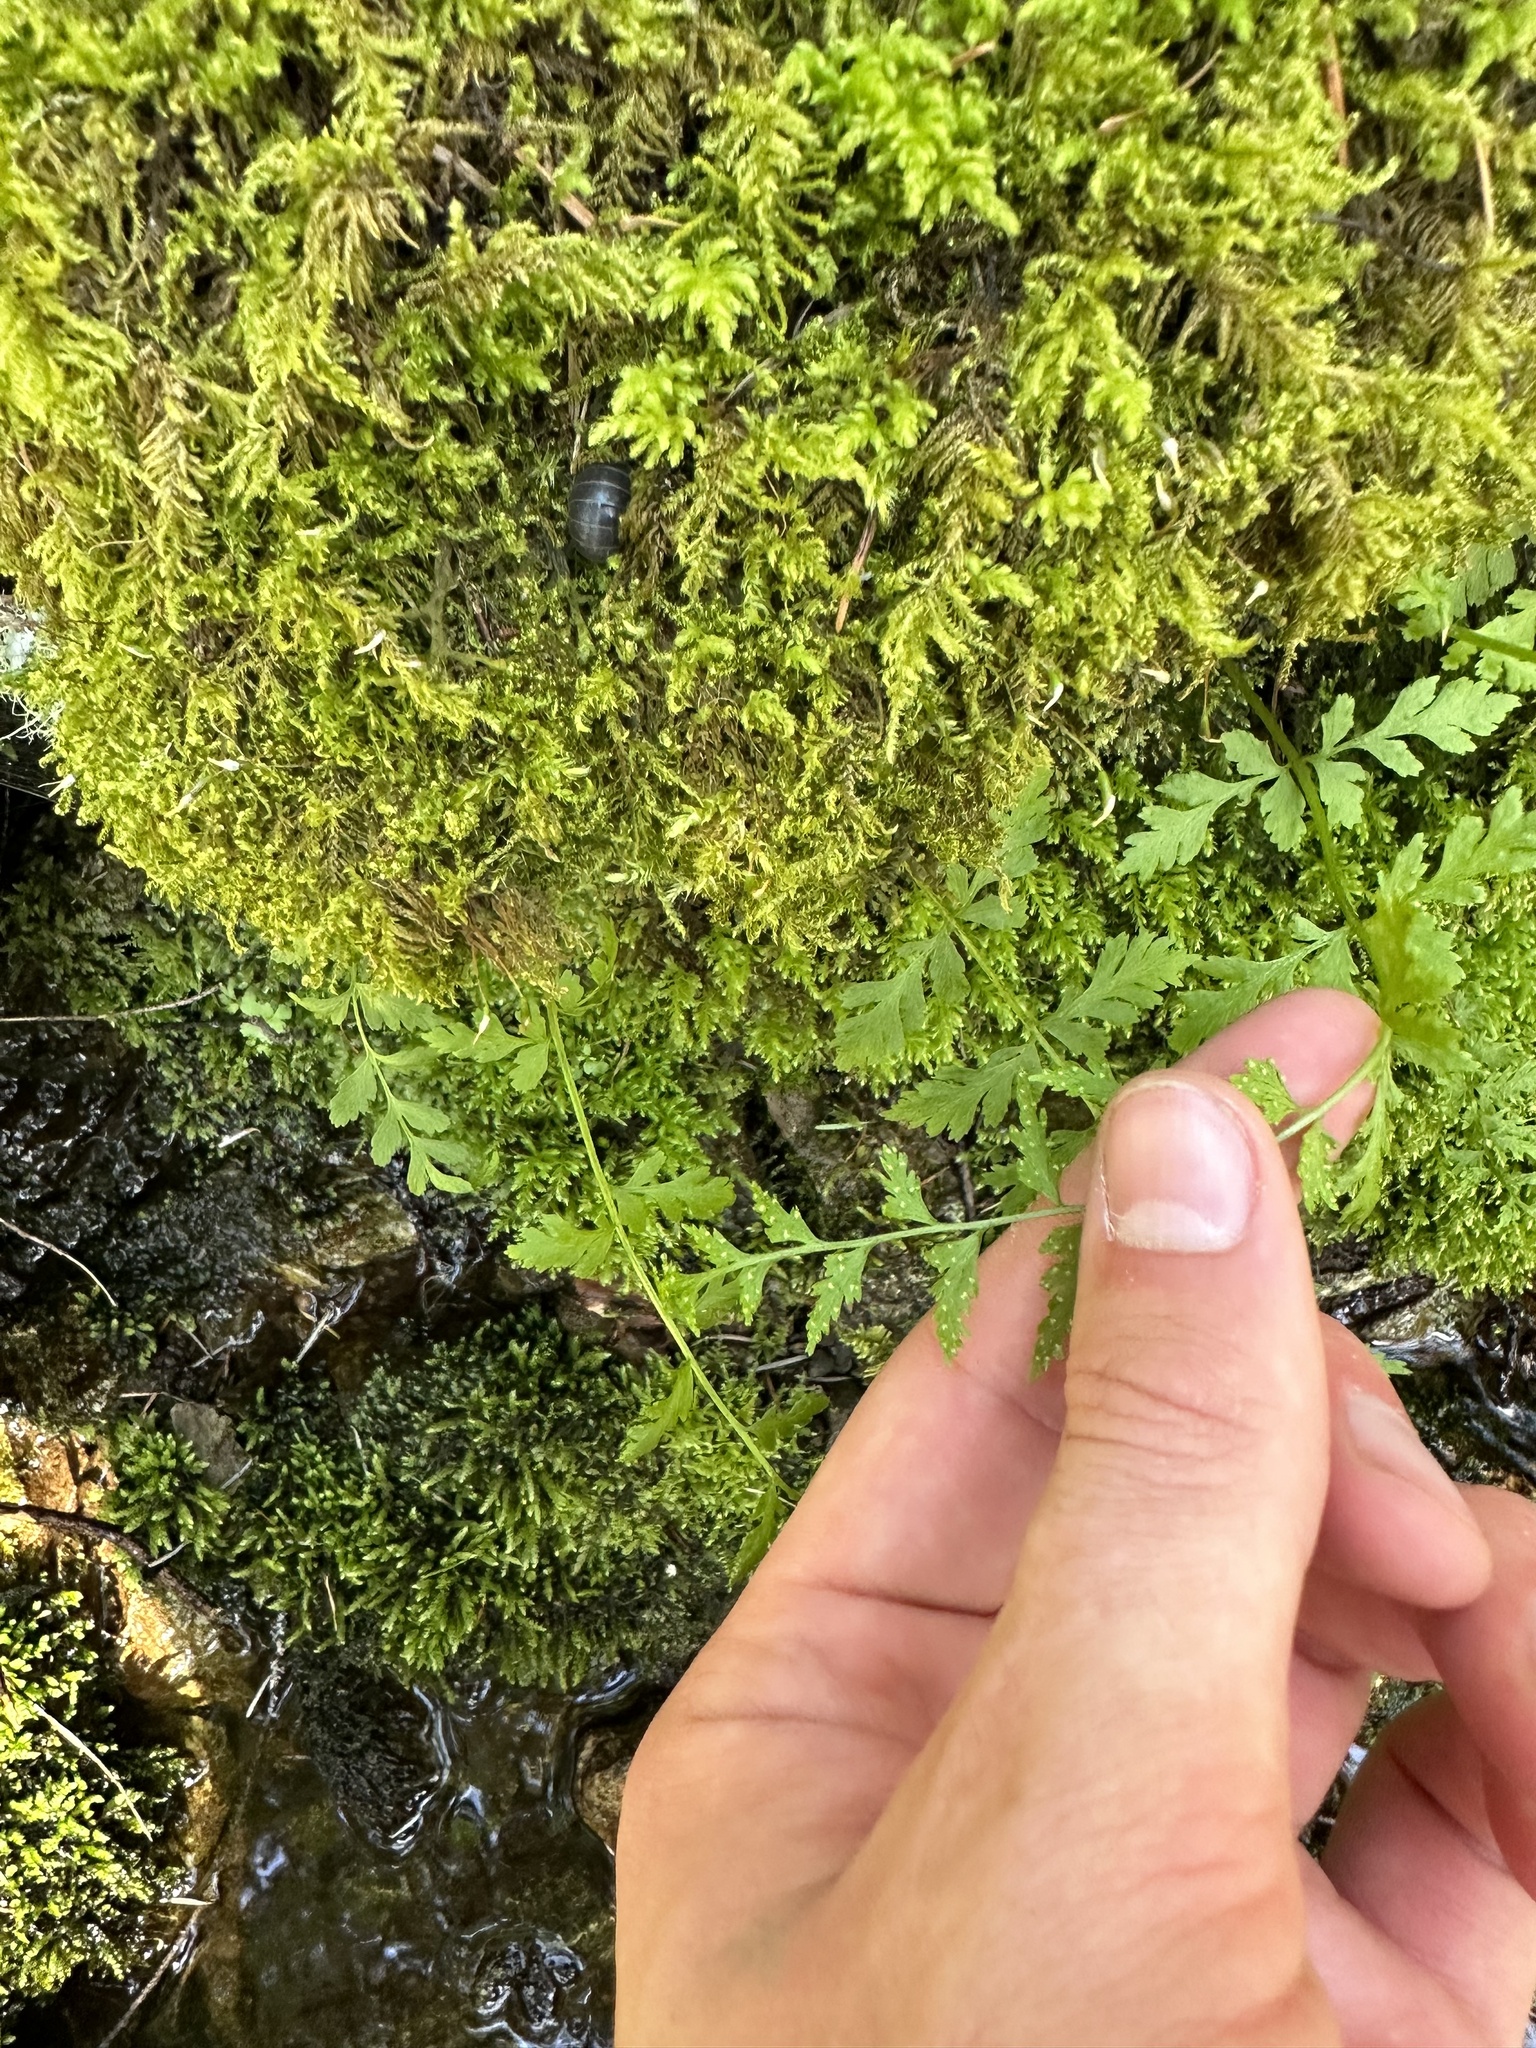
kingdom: Plantae
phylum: Tracheophyta
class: Polypodiopsida
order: Polypodiales
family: Cystopteridaceae
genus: Cystopteris
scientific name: Cystopteris fragilis
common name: Brittle bladder fern
